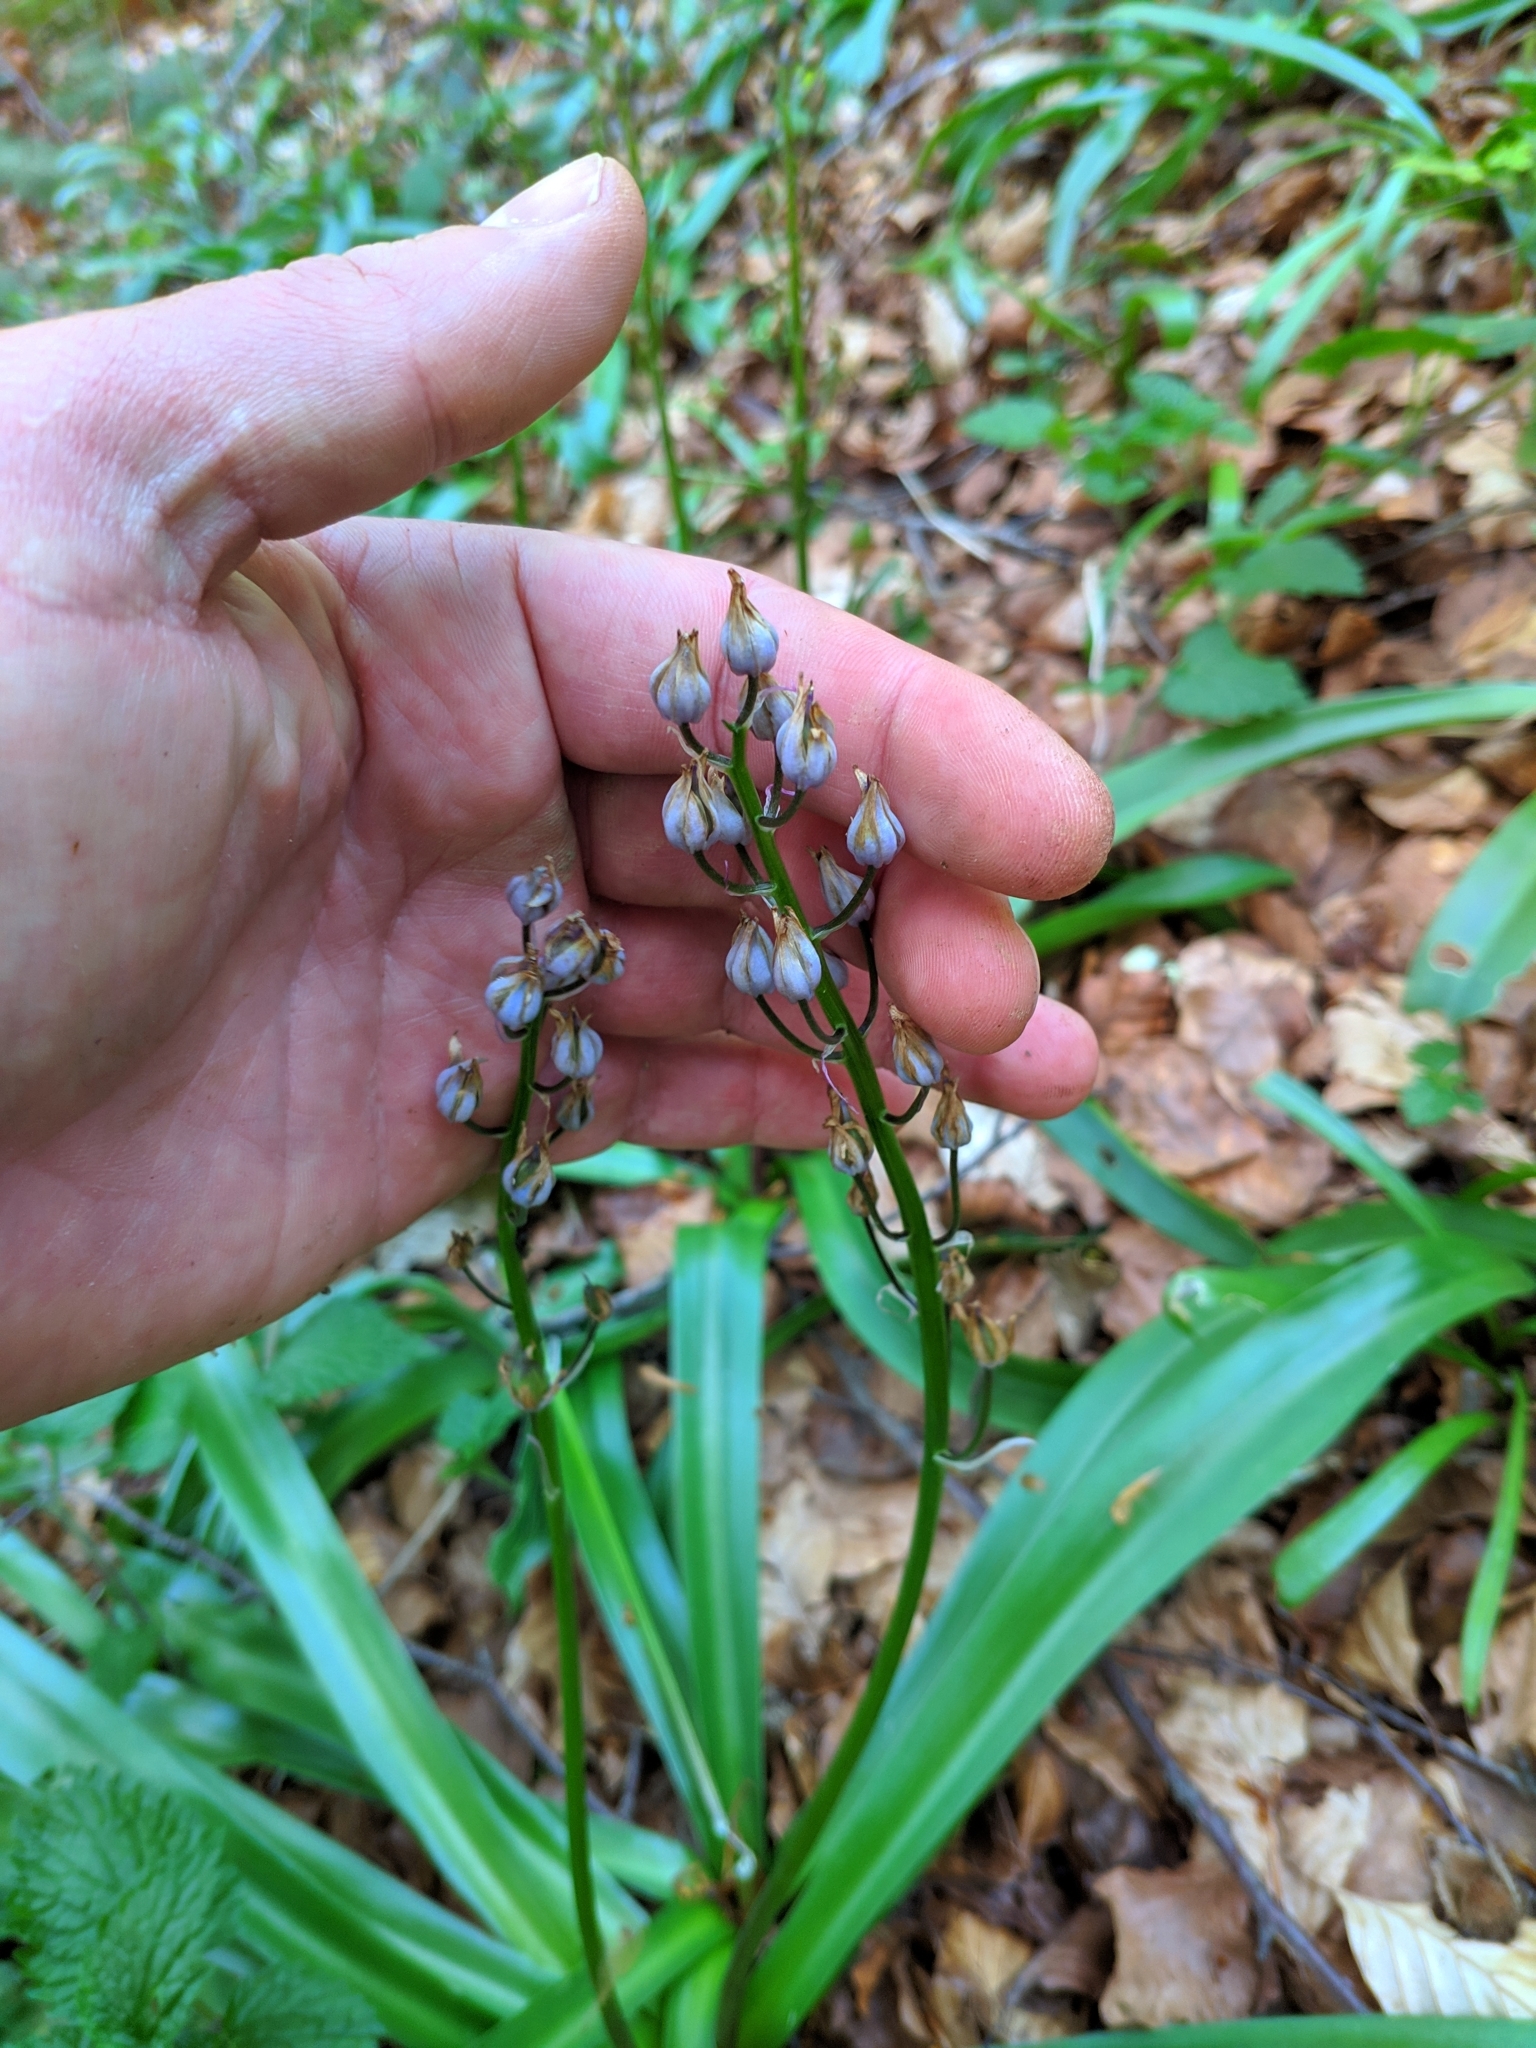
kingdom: Plantae
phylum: Tracheophyta
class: Liliopsida
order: Asparagales
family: Asparagaceae
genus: Scilla
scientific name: Scilla lilio-hyacinthus
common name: Pyrenean squill
